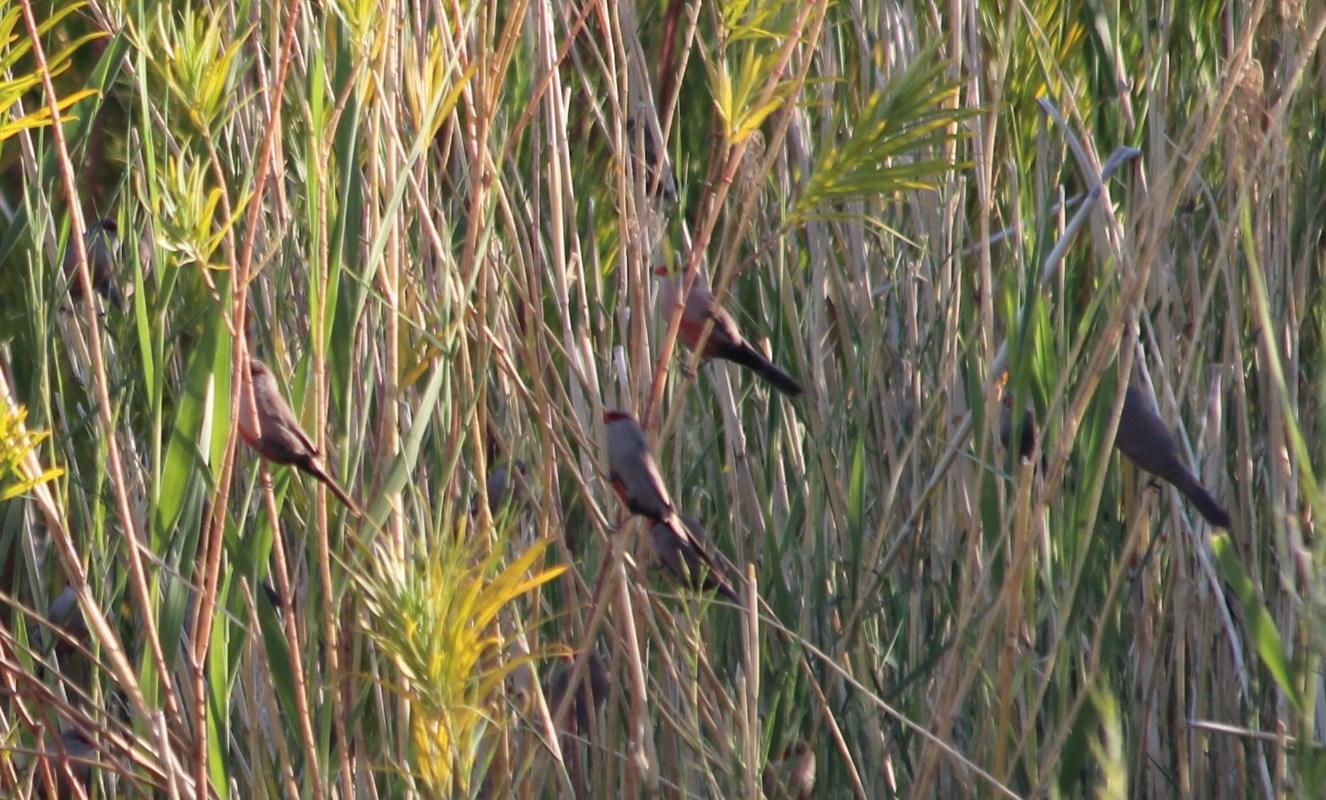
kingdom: Animalia
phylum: Chordata
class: Aves
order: Passeriformes
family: Estrildidae
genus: Estrilda
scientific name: Estrilda astrild
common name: Common waxbill
